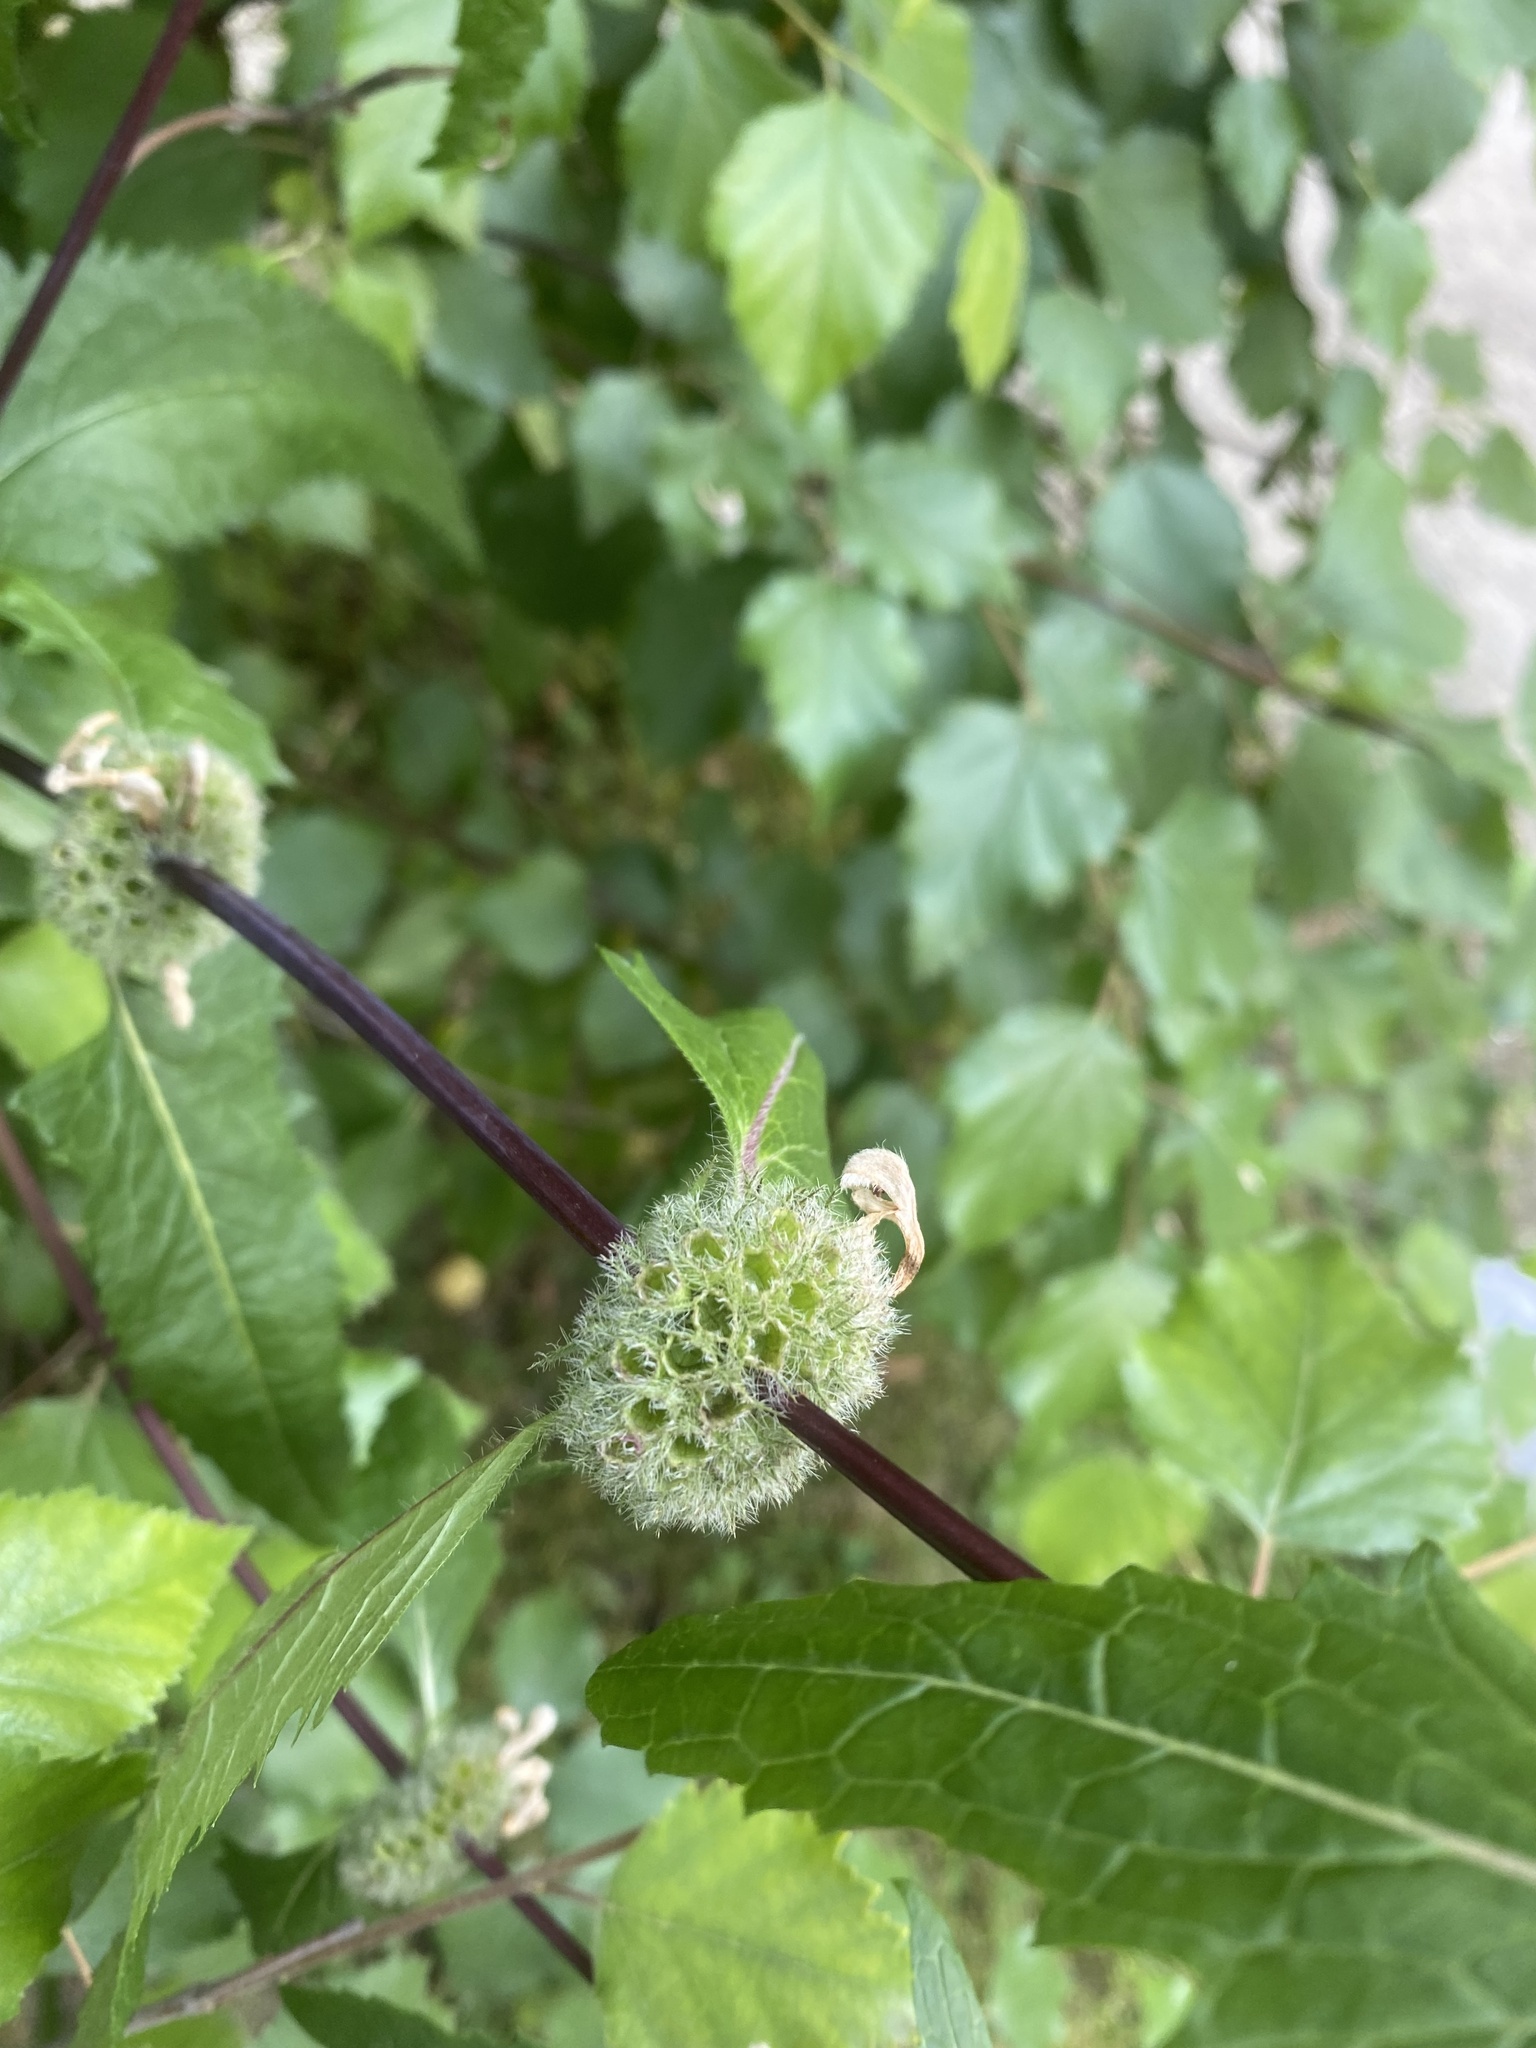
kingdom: Plantae
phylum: Tracheophyta
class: Magnoliopsida
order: Lamiales
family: Lamiaceae
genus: Phlomoides
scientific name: Phlomoides tuberosa
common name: Tuberous jerusalem sage
